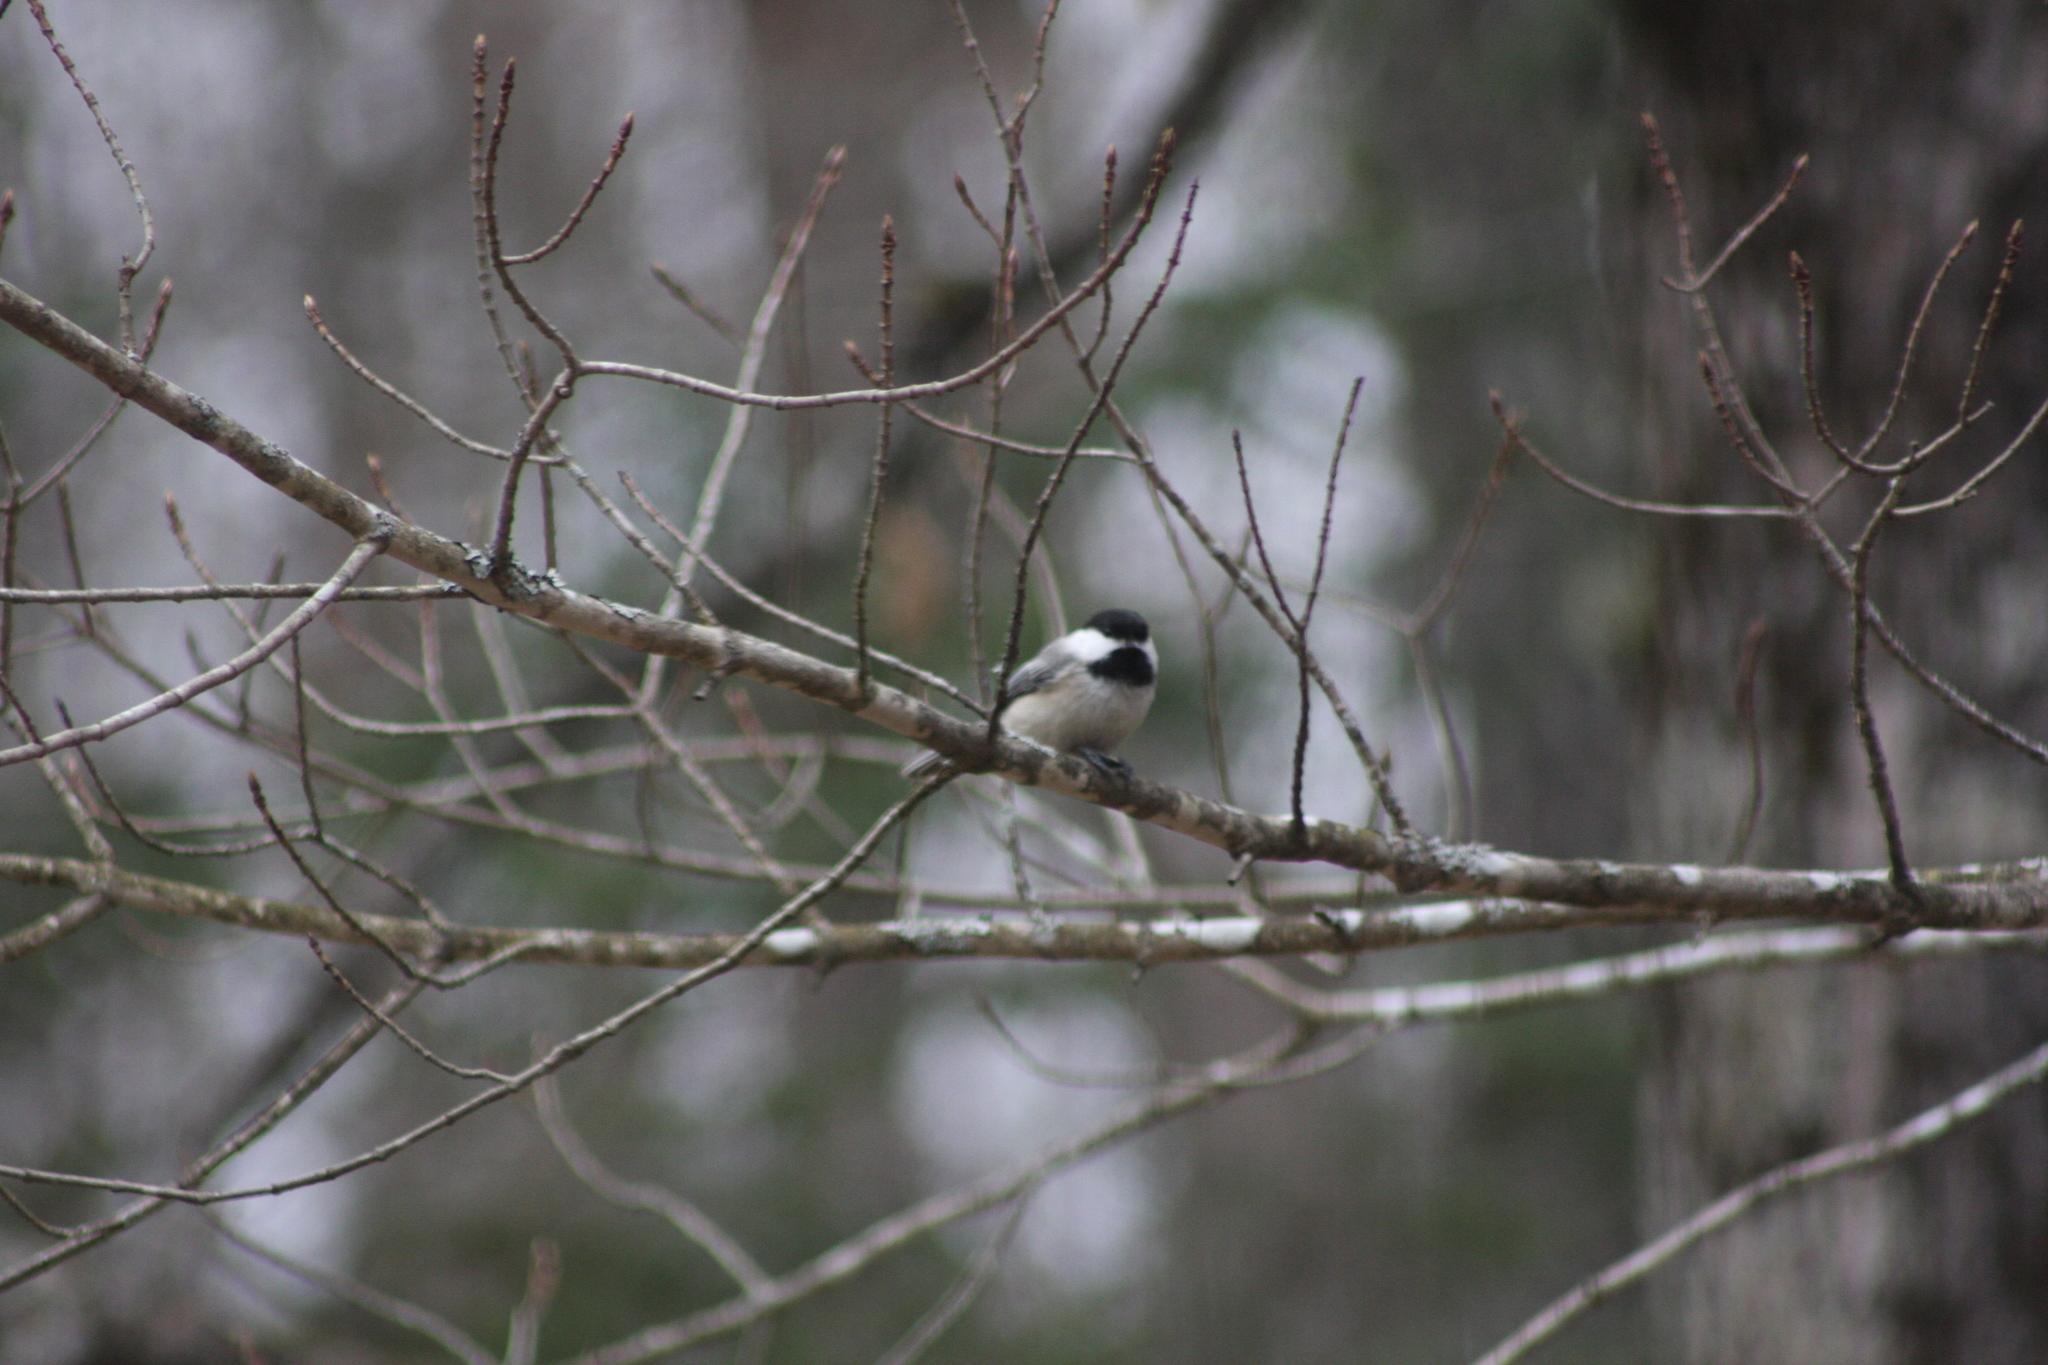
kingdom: Animalia
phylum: Chordata
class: Aves
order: Passeriformes
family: Paridae
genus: Poecile
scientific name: Poecile atricapillus
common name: Black-capped chickadee
